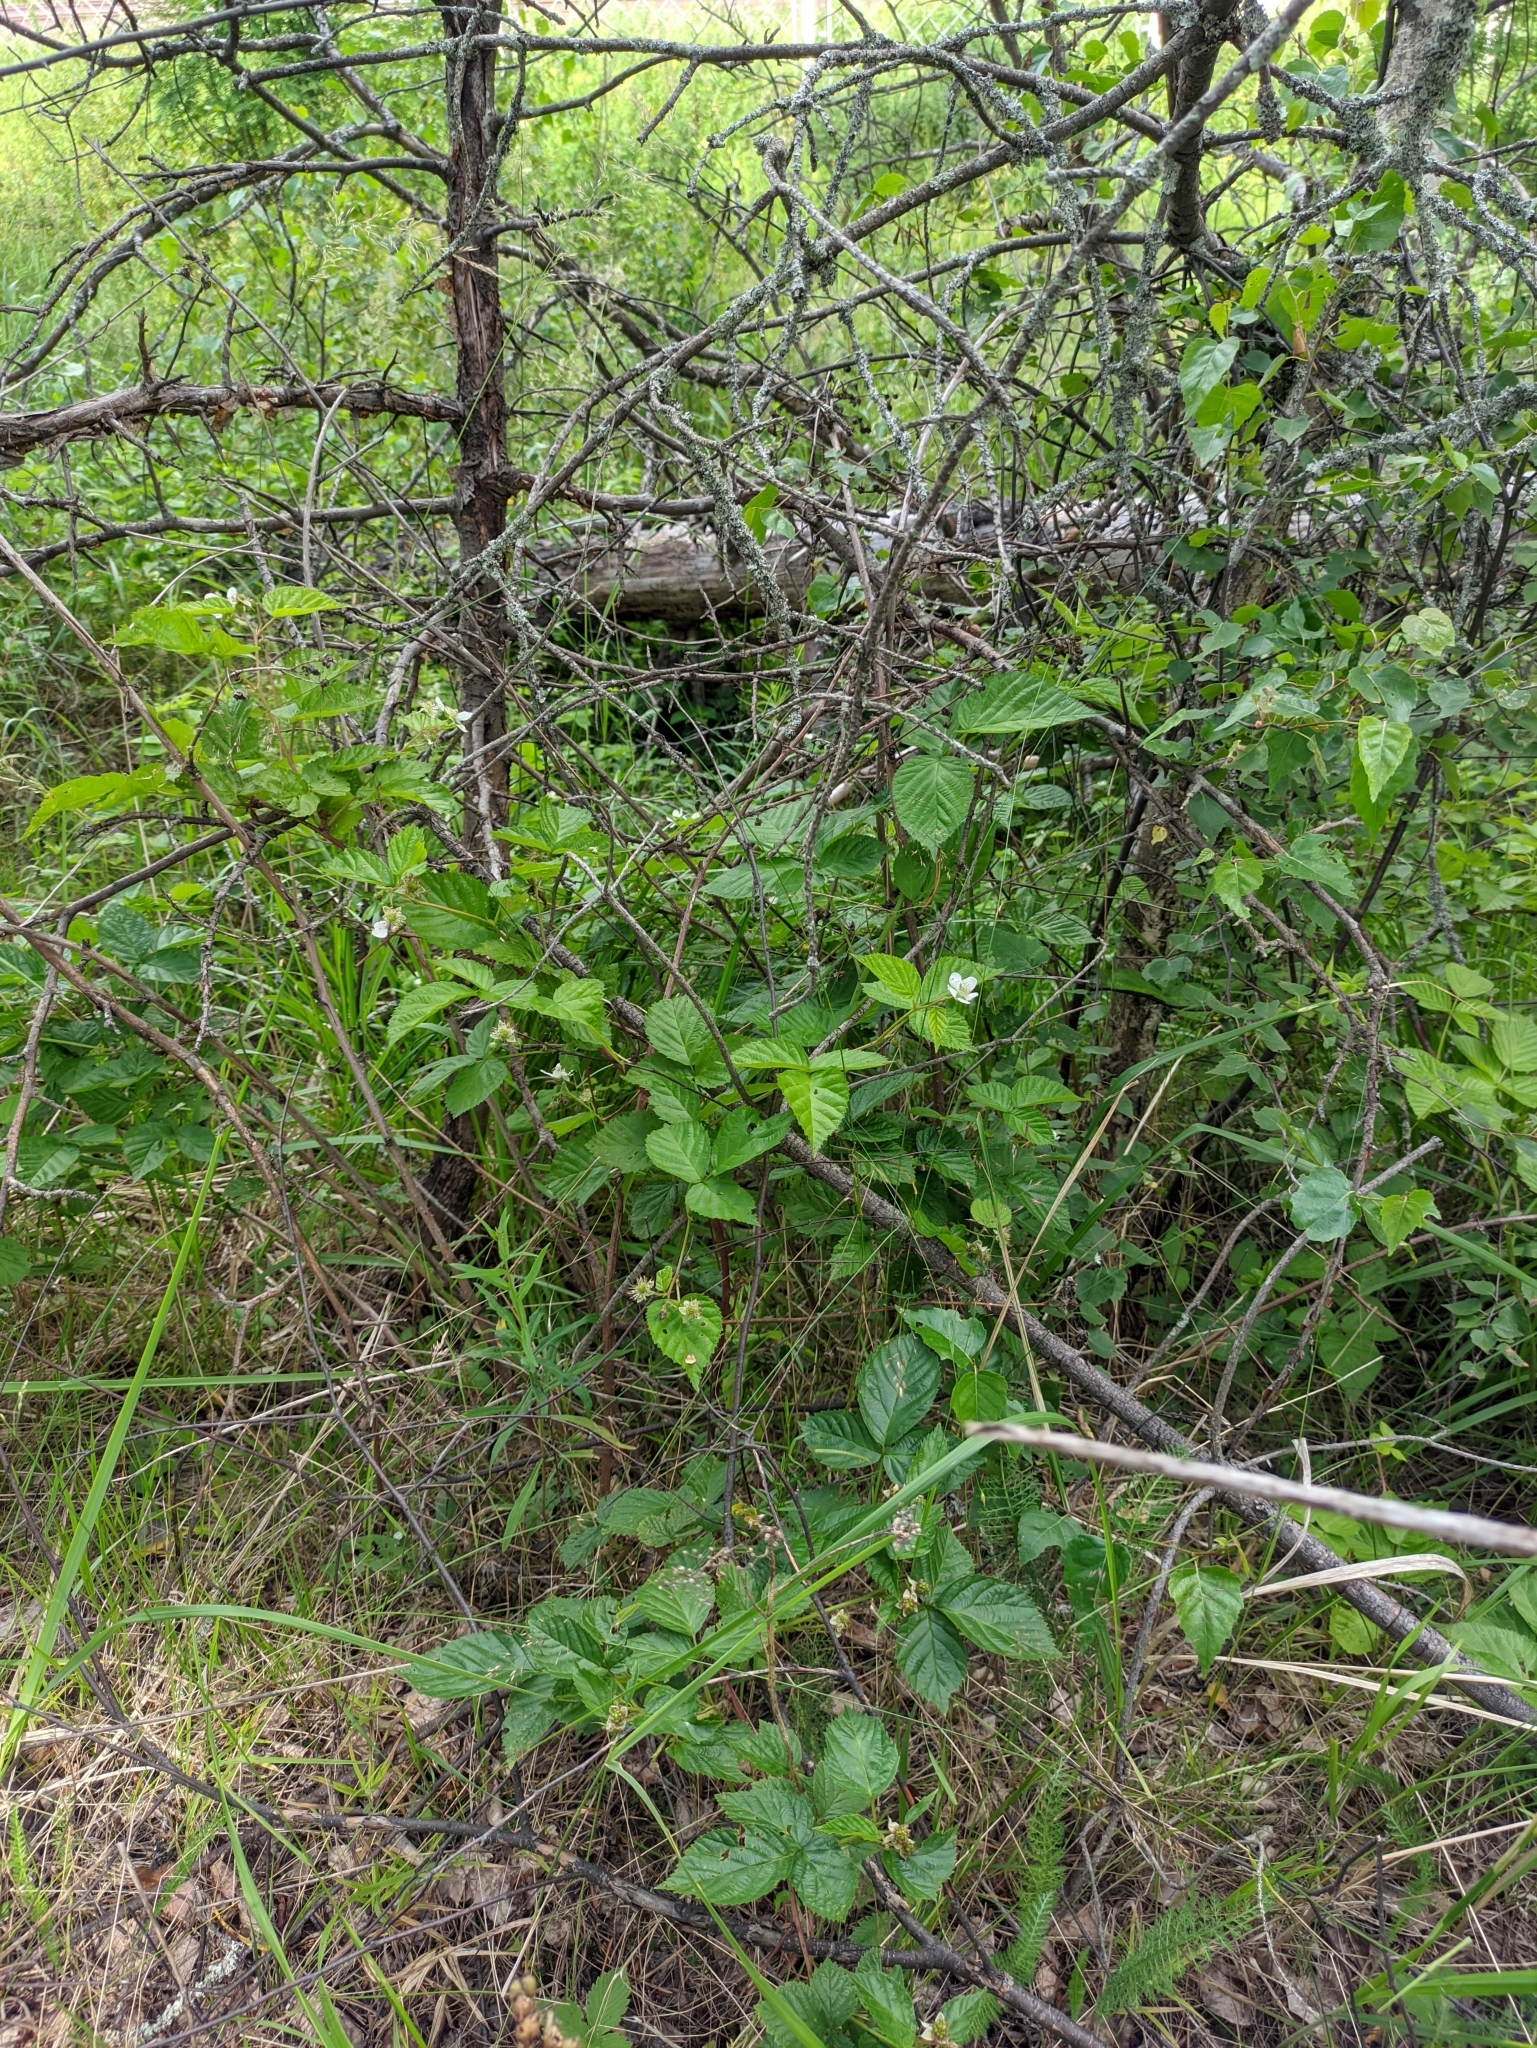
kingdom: Plantae
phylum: Tracheophyta
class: Magnoliopsida
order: Rosales
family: Rosaceae
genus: Rubus
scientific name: Rubus polonicus
